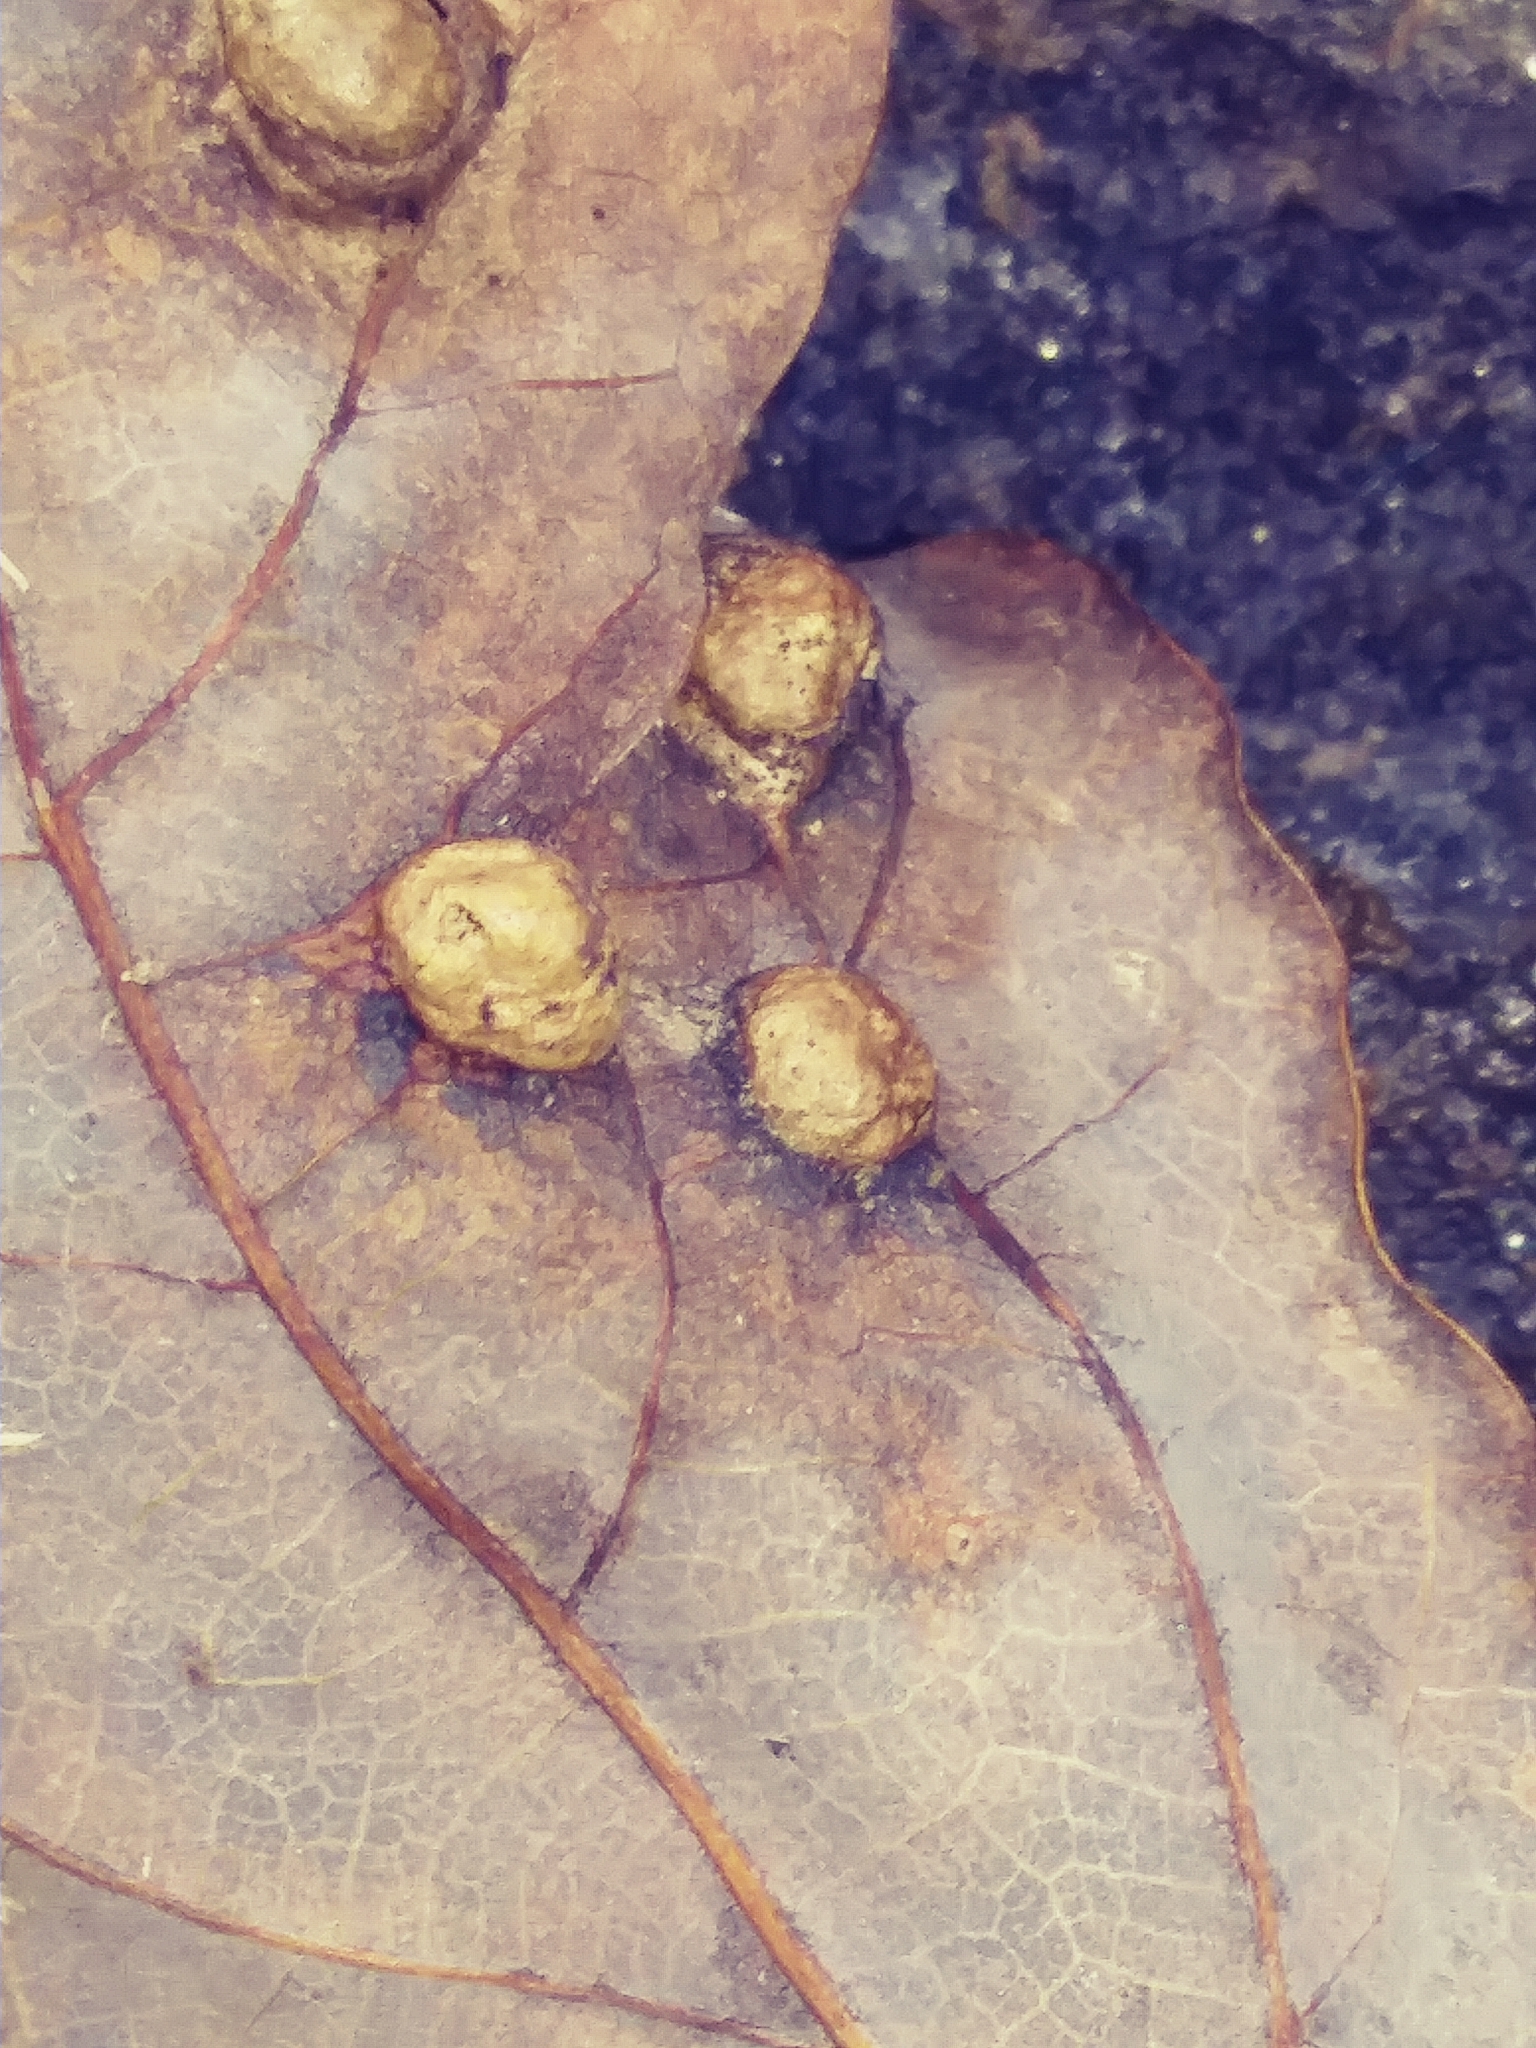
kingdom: Animalia
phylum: Arthropoda
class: Insecta
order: Diptera
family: Cecidomyiidae
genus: Macrodiplosis
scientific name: Macrodiplosis majalis
